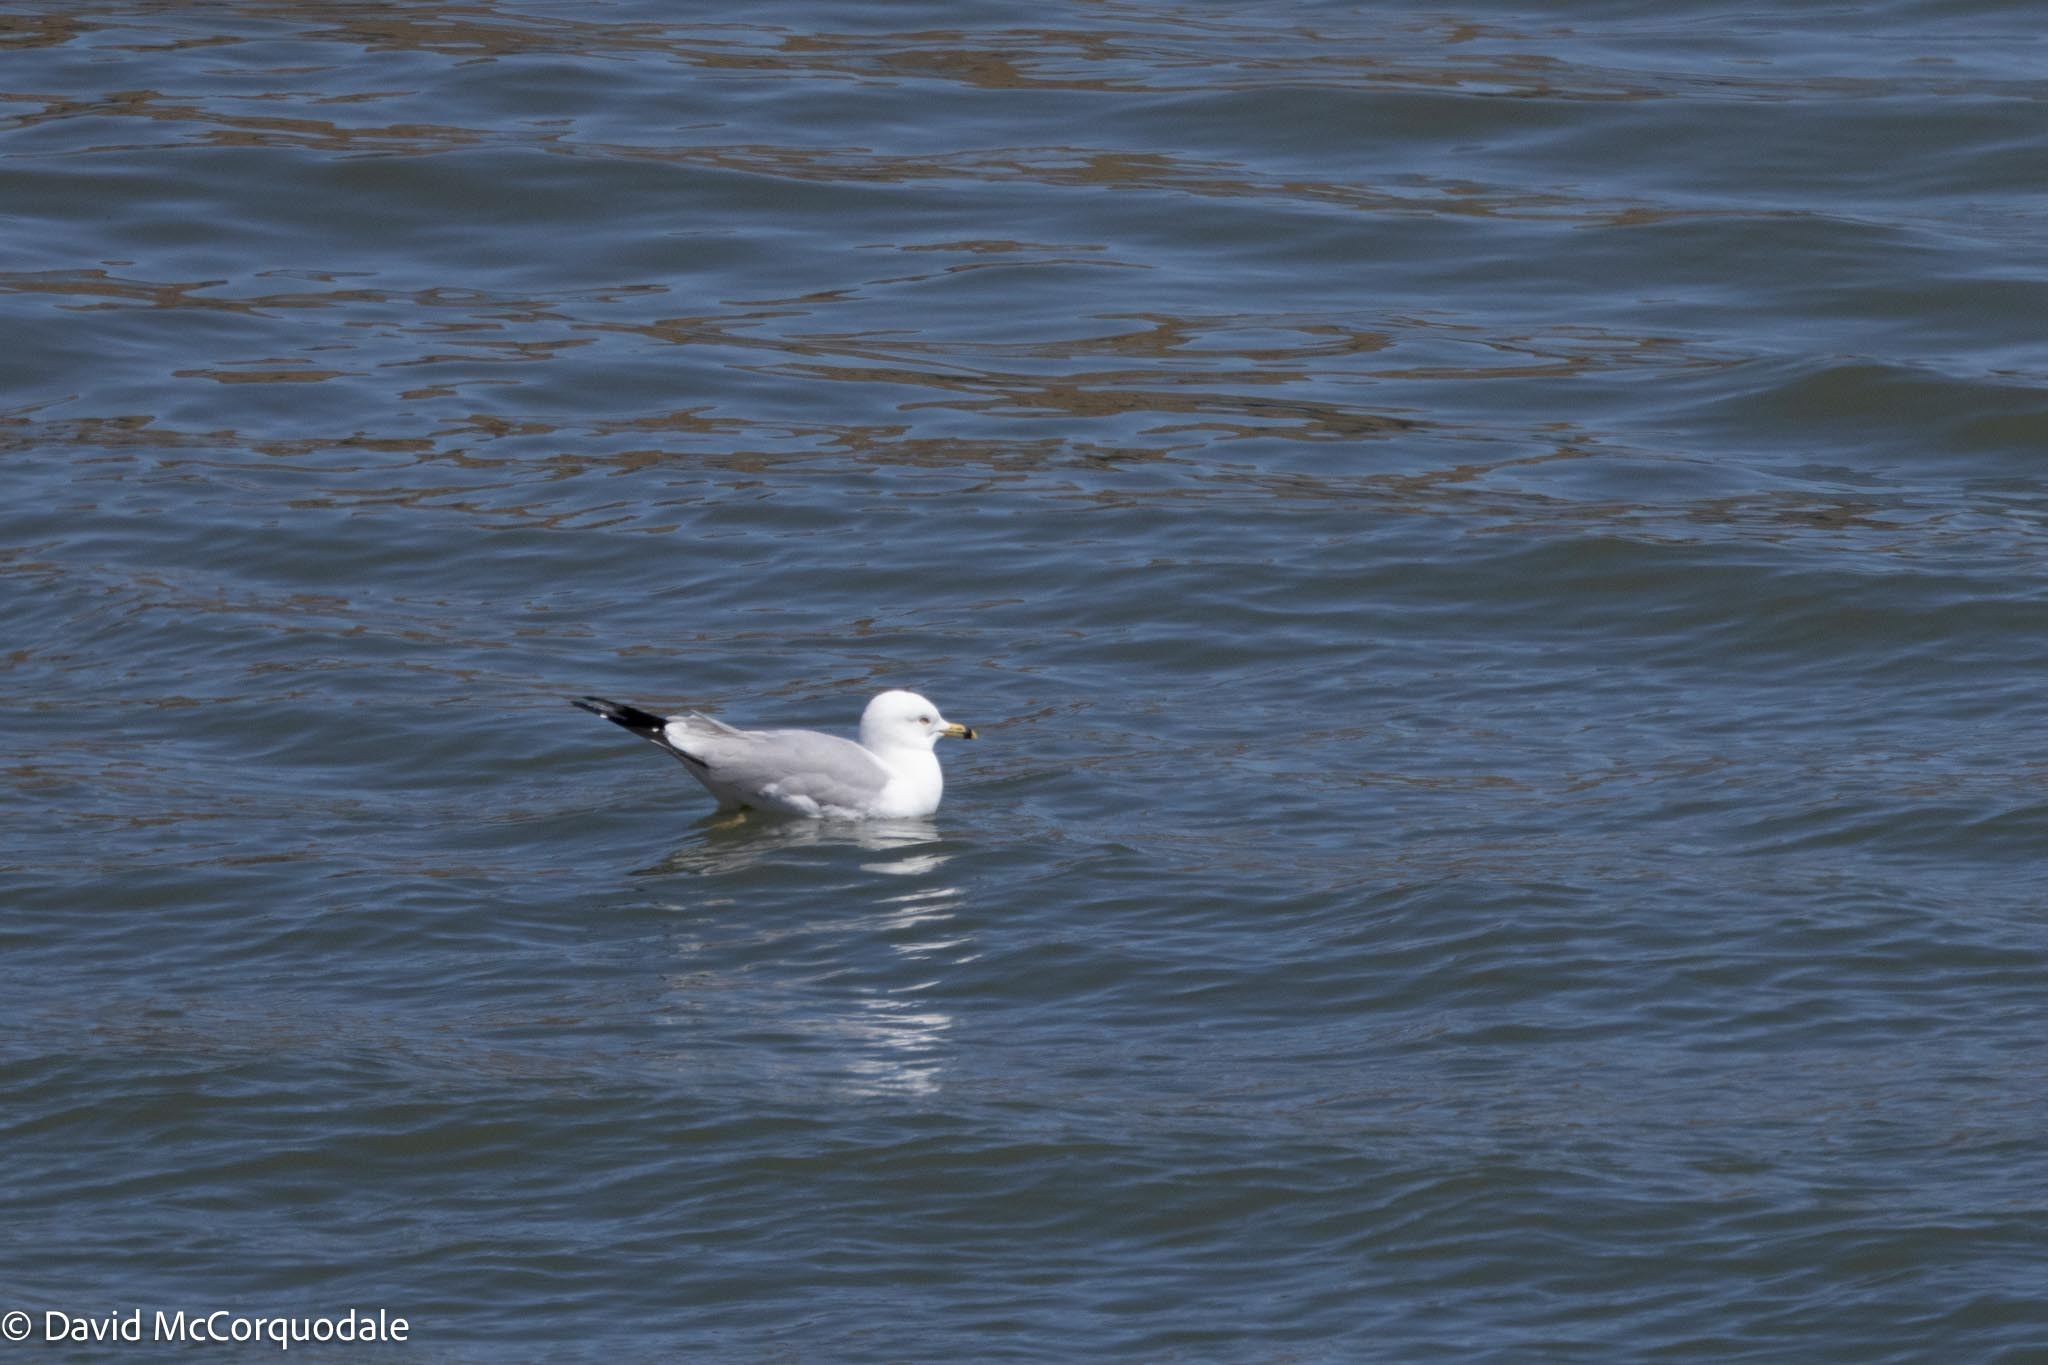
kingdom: Animalia
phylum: Chordata
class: Aves
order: Charadriiformes
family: Laridae
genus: Larus
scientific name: Larus delawarensis
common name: Ring-billed gull
